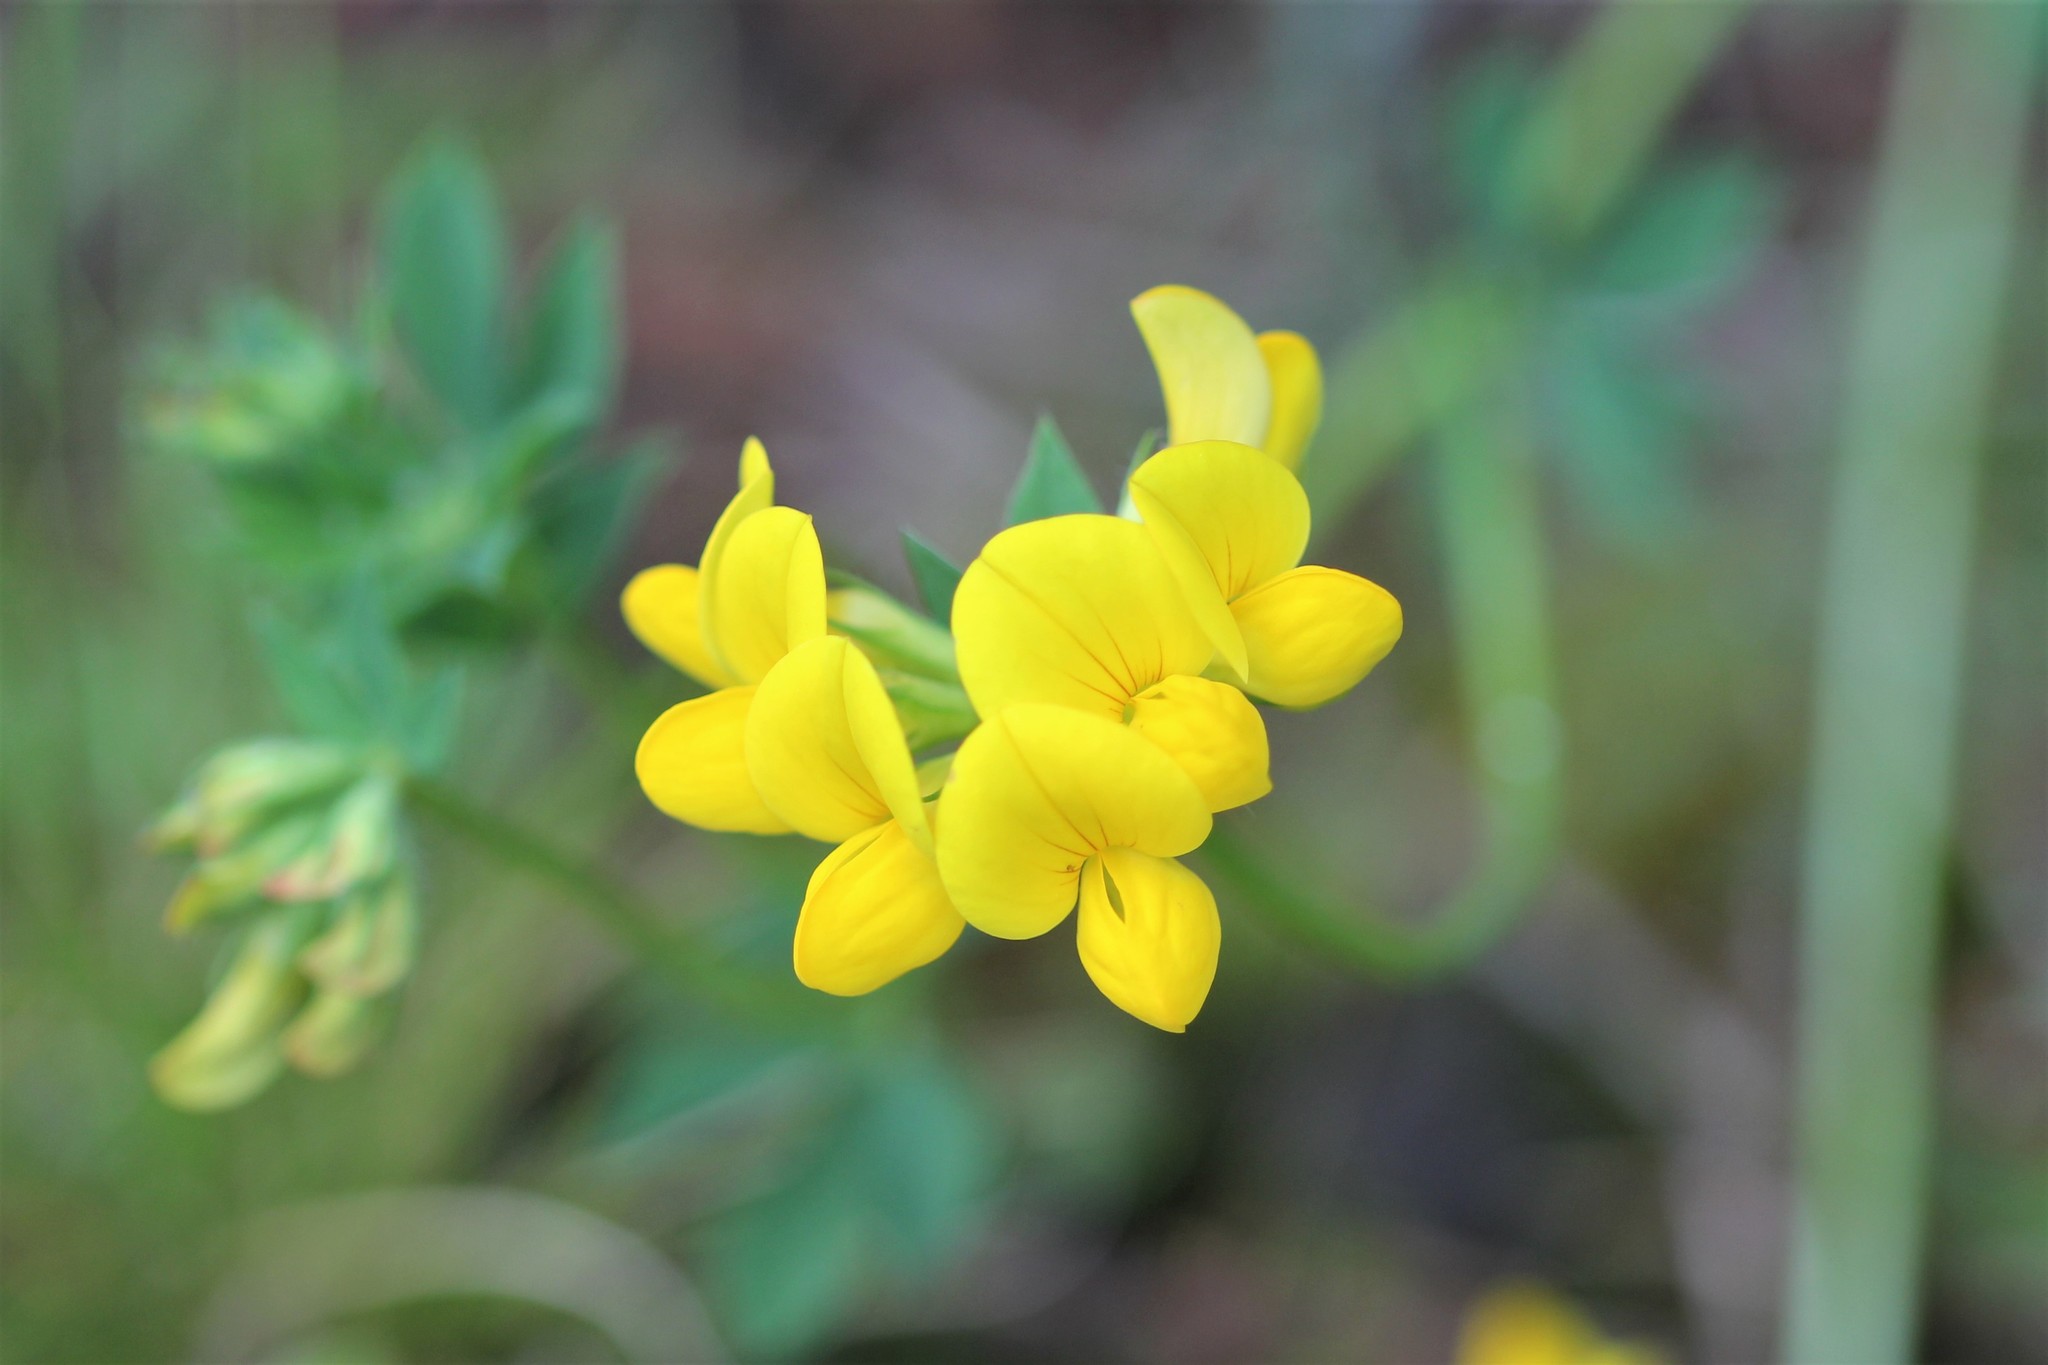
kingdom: Plantae
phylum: Tracheophyta
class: Magnoliopsida
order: Fabales
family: Fabaceae
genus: Lotus
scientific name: Lotus corniculatus
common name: Common bird's-foot-trefoil
